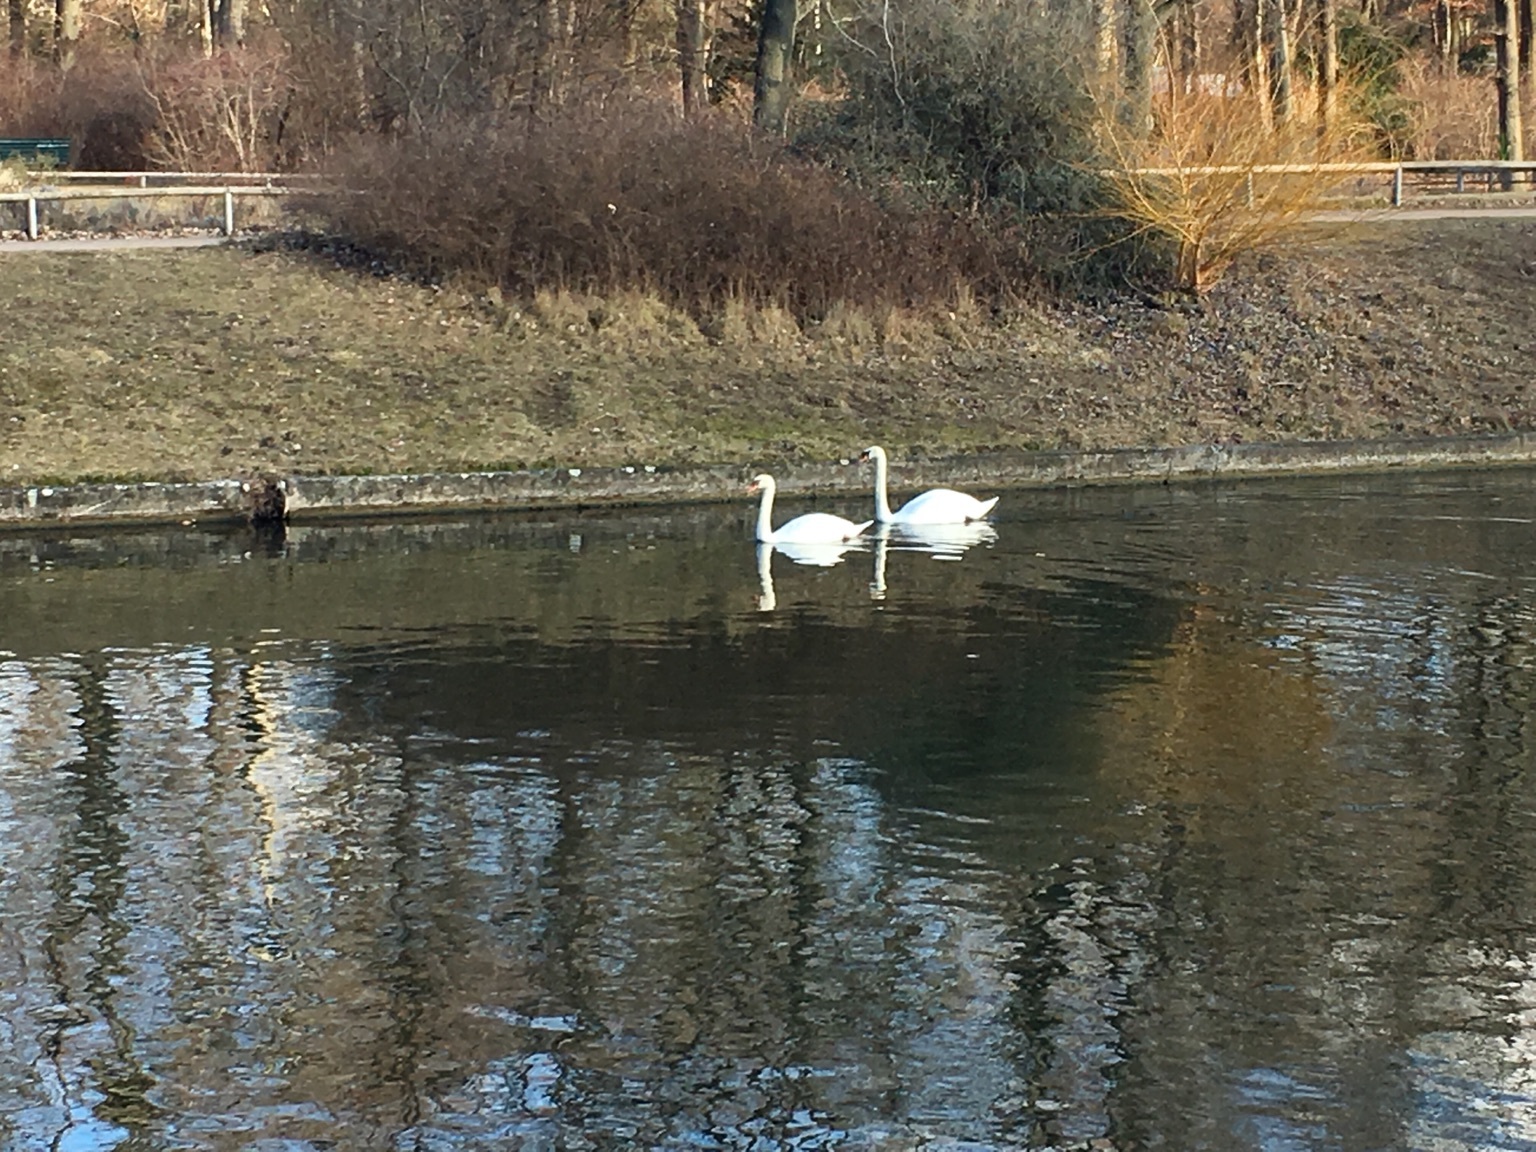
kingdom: Animalia
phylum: Chordata
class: Aves
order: Anseriformes
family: Anatidae
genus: Cygnus
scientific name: Cygnus olor
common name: Mute swan
